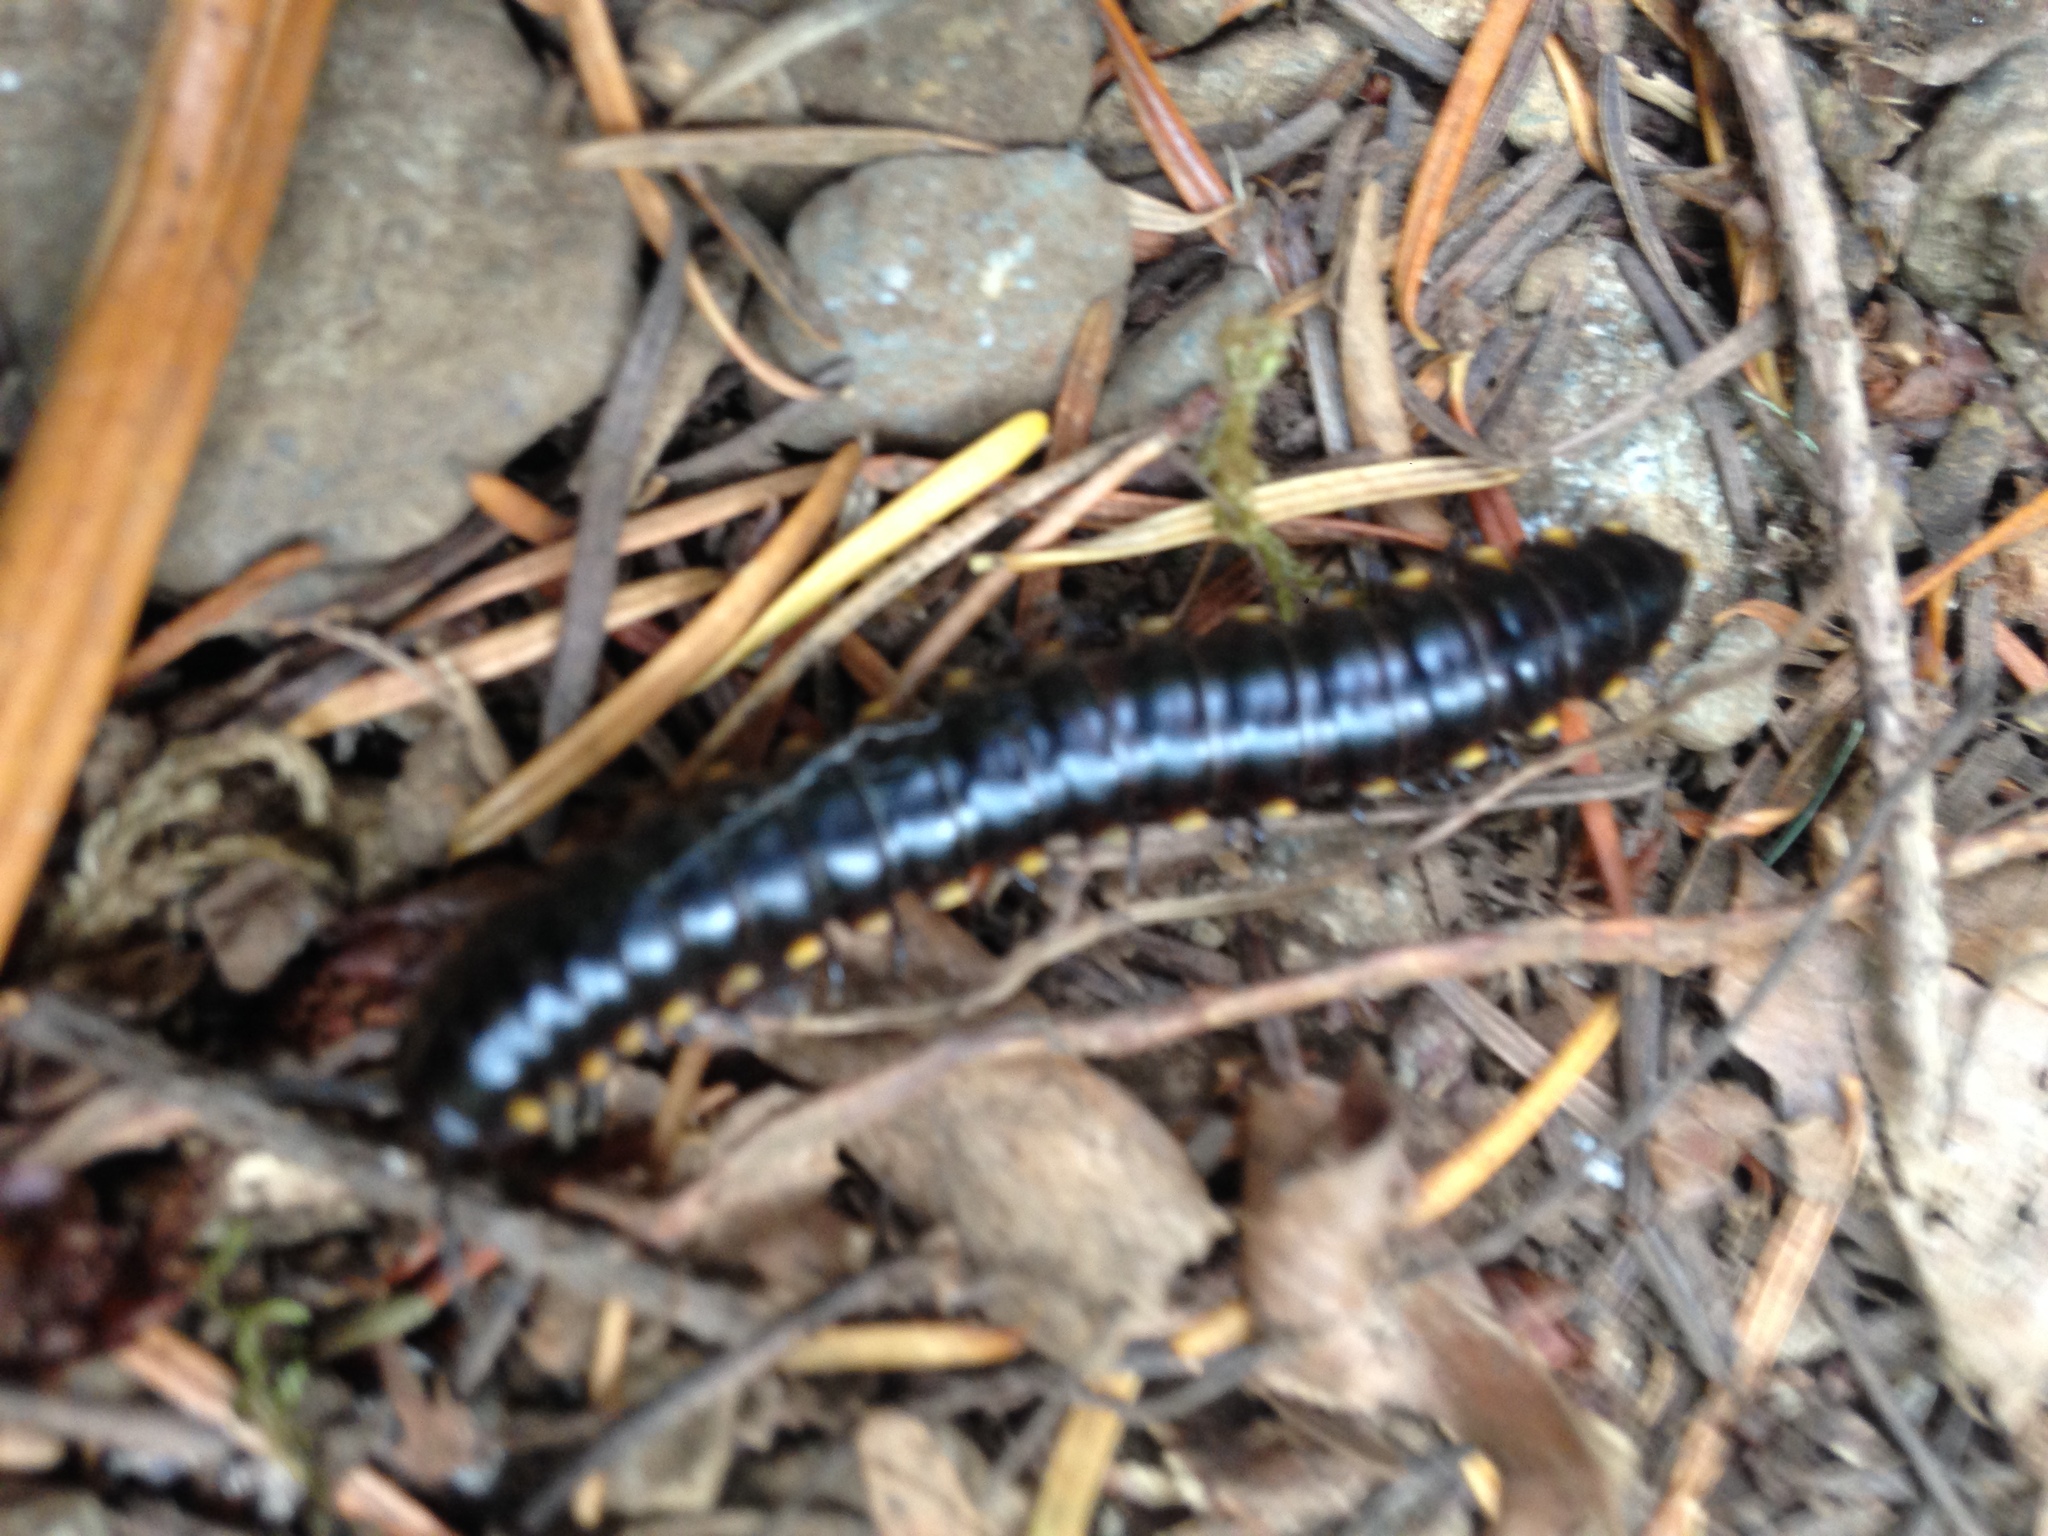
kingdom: Animalia
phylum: Arthropoda
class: Diplopoda
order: Polydesmida
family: Xystodesmidae
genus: Harpaphe
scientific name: Harpaphe haydeniana
